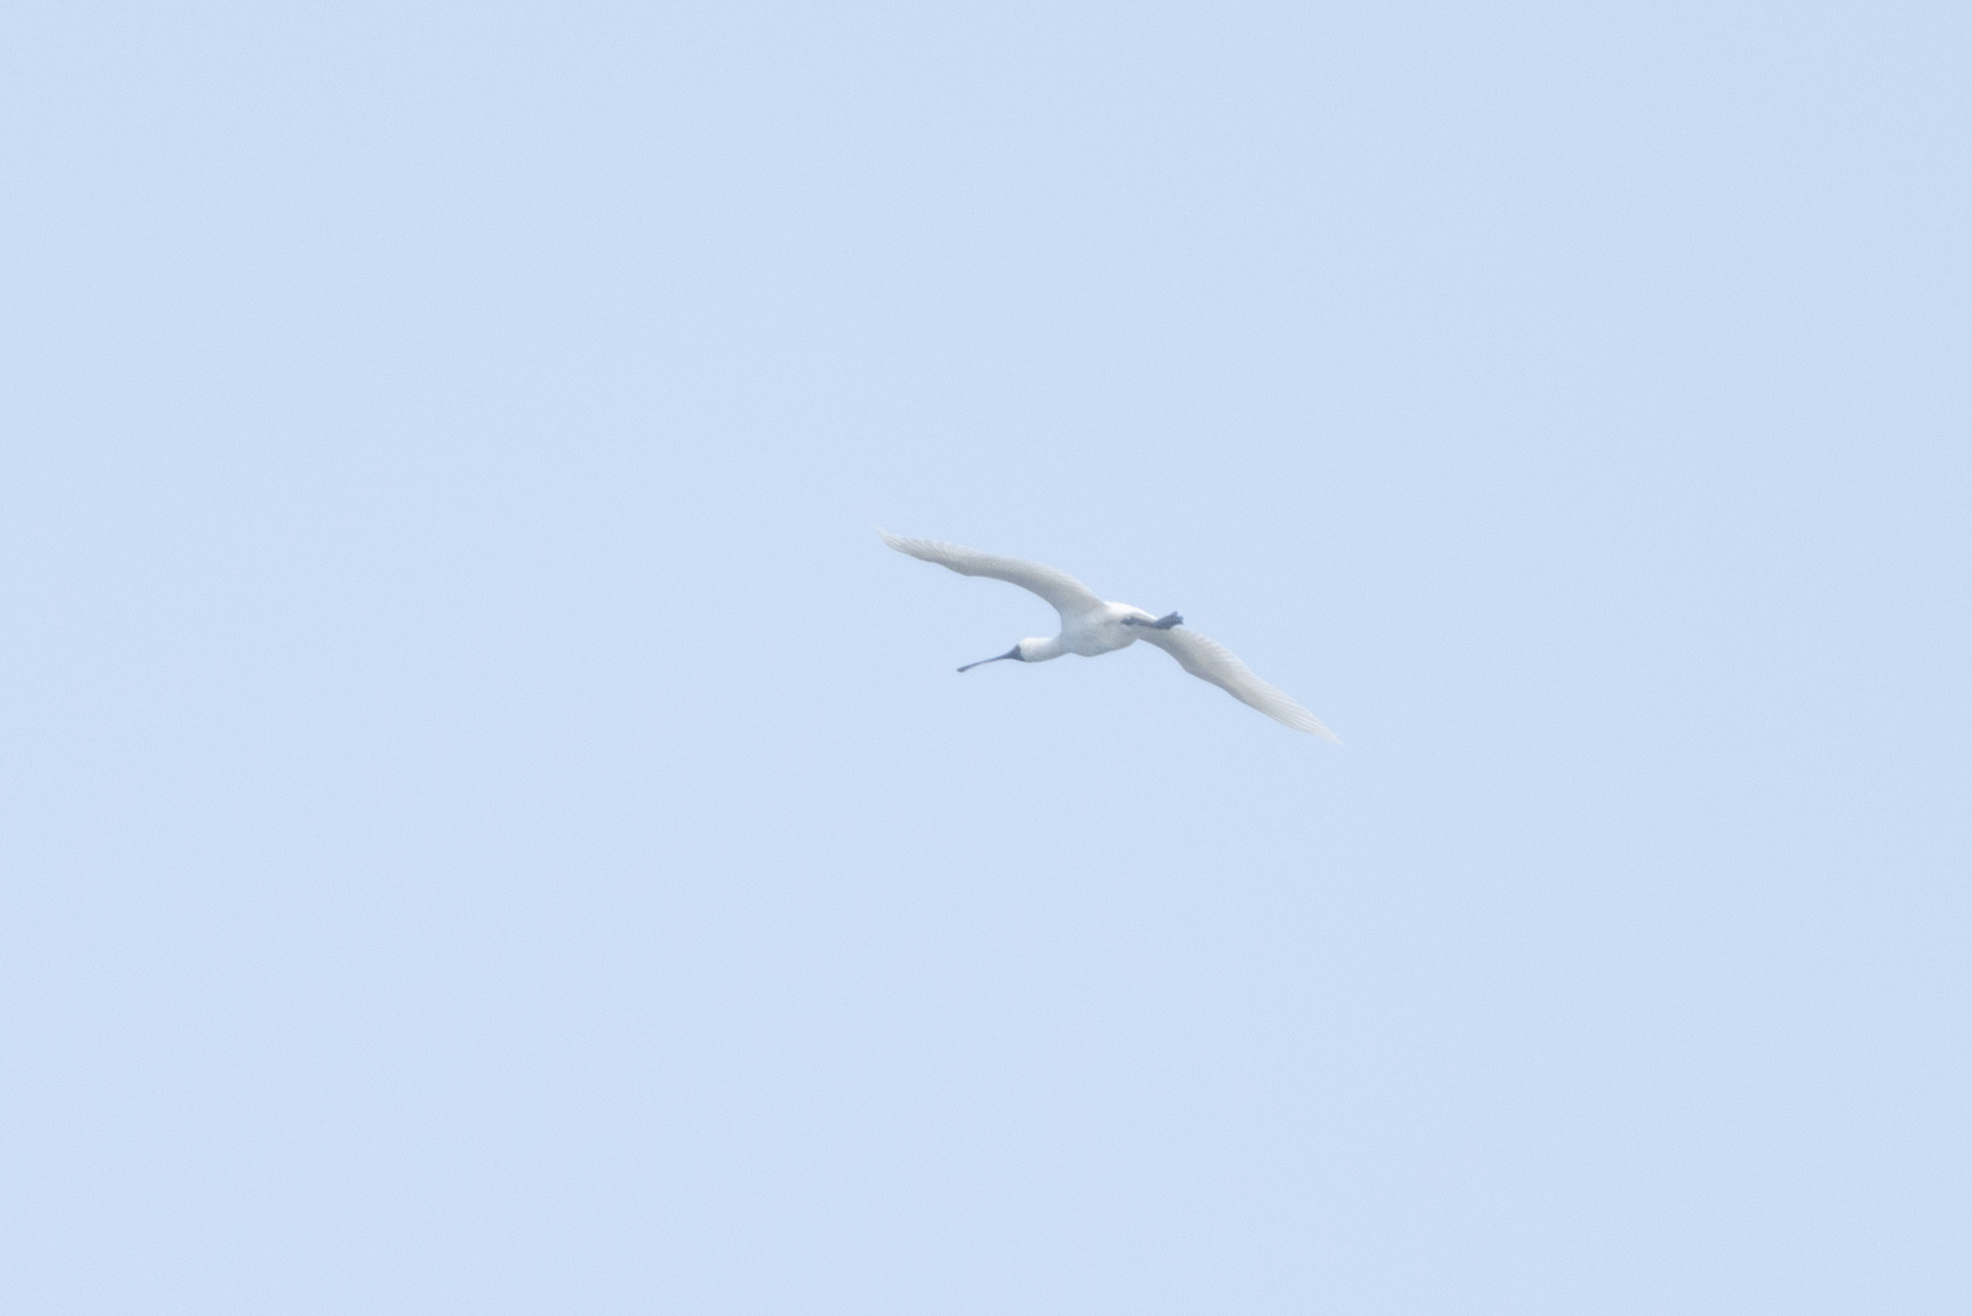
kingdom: Animalia
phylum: Chordata
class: Aves
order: Pelecaniformes
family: Threskiornithidae
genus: Platalea
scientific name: Platalea minor
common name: Black-faced spoonbill
